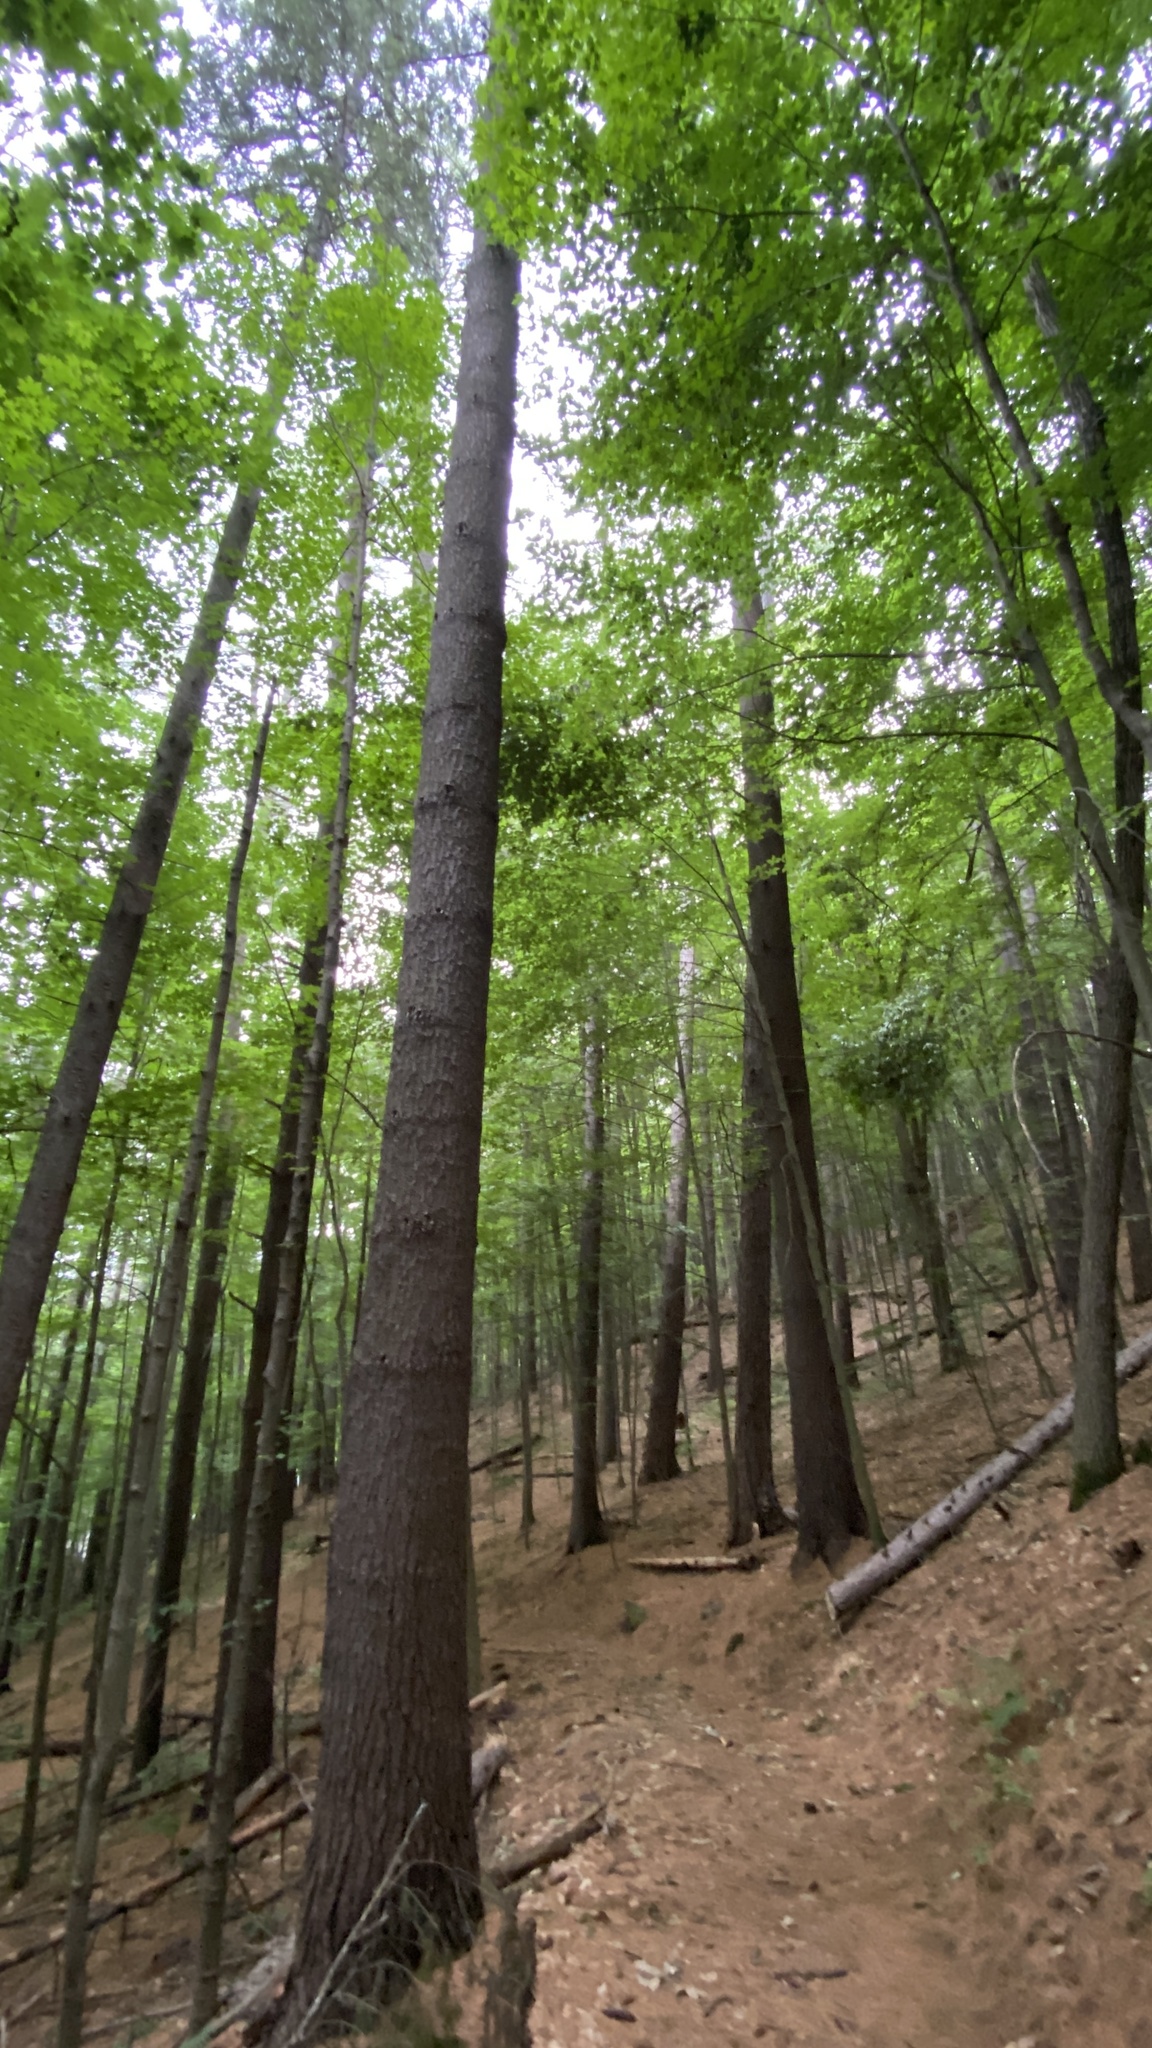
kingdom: Plantae
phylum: Tracheophyta
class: Pinopsida
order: Pinales
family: Pinaceae
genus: Pinus
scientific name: Pinus strobus
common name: Weymouth pine
